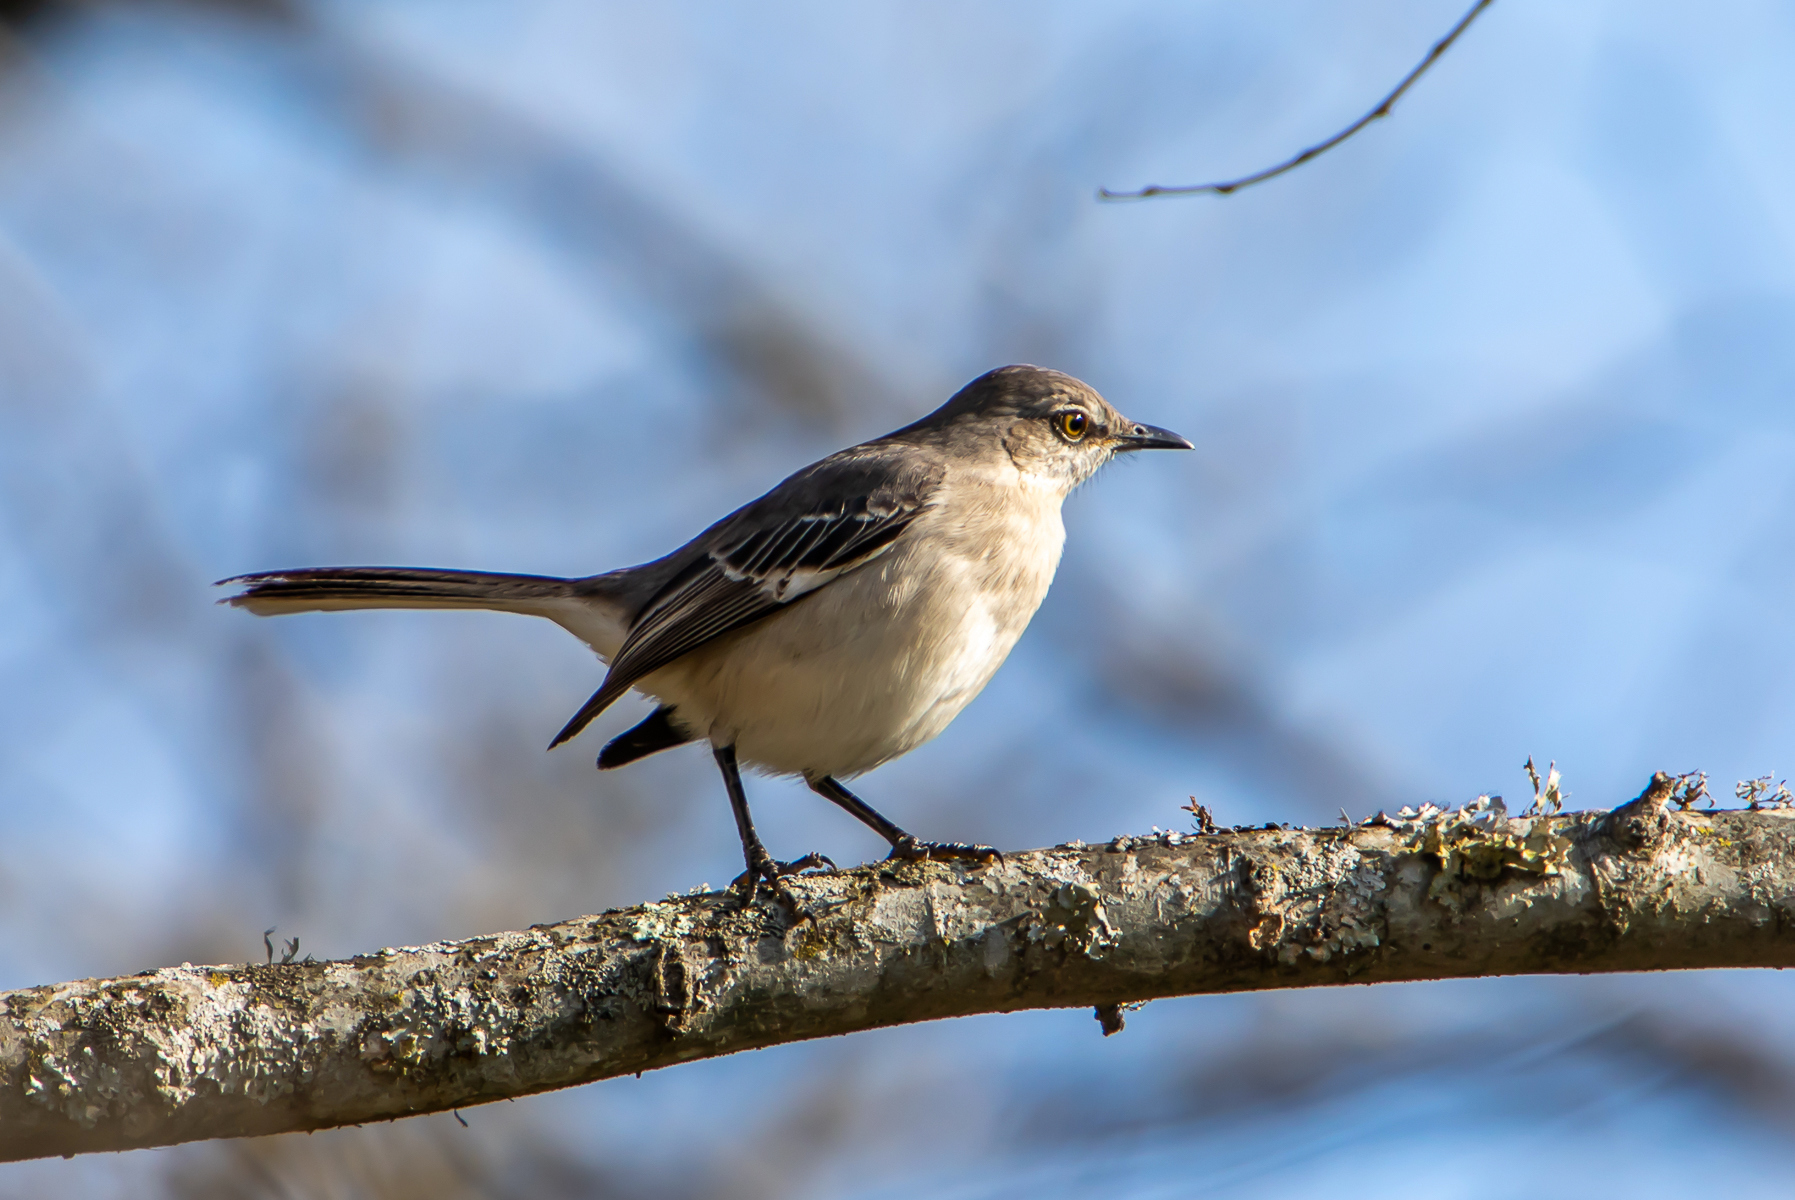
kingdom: Animalia
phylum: Chordata
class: Aves
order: Passeriformes
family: Mimidae
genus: Mimus
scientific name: Mimus polyglottos
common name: Northern mockingbird
